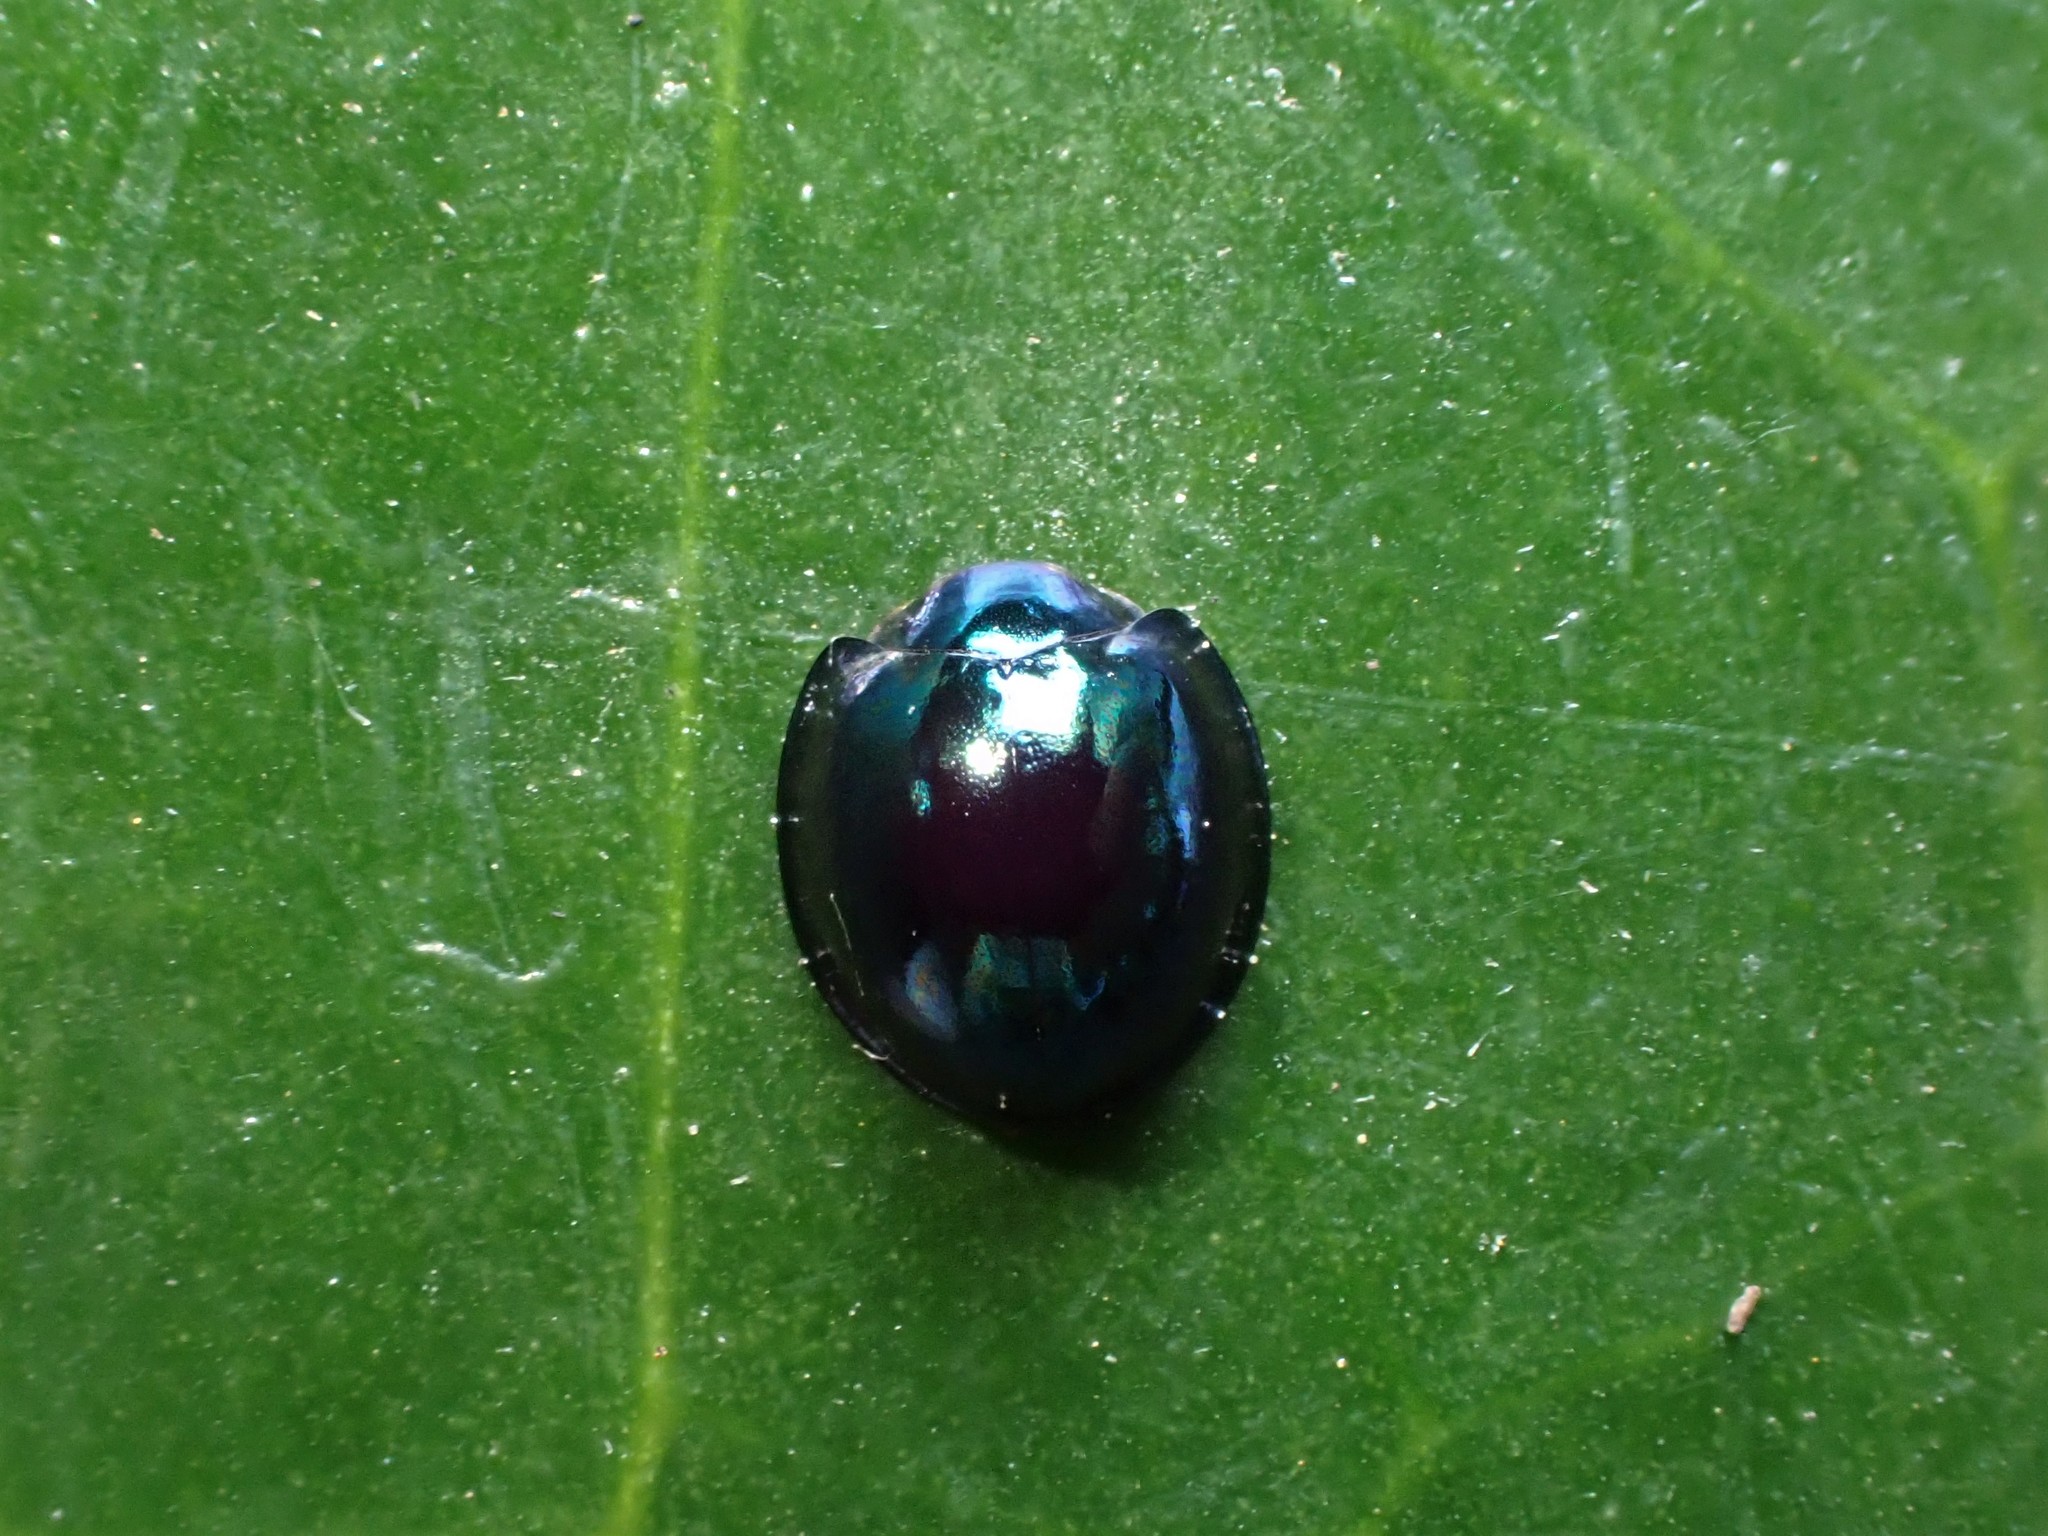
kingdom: Animalia
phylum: Arthropoda
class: Insecta
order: Coleoptera
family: Coccinellidae
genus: Halmus
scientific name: Halmus chalybeus
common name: Steel blue ladybird beetle
